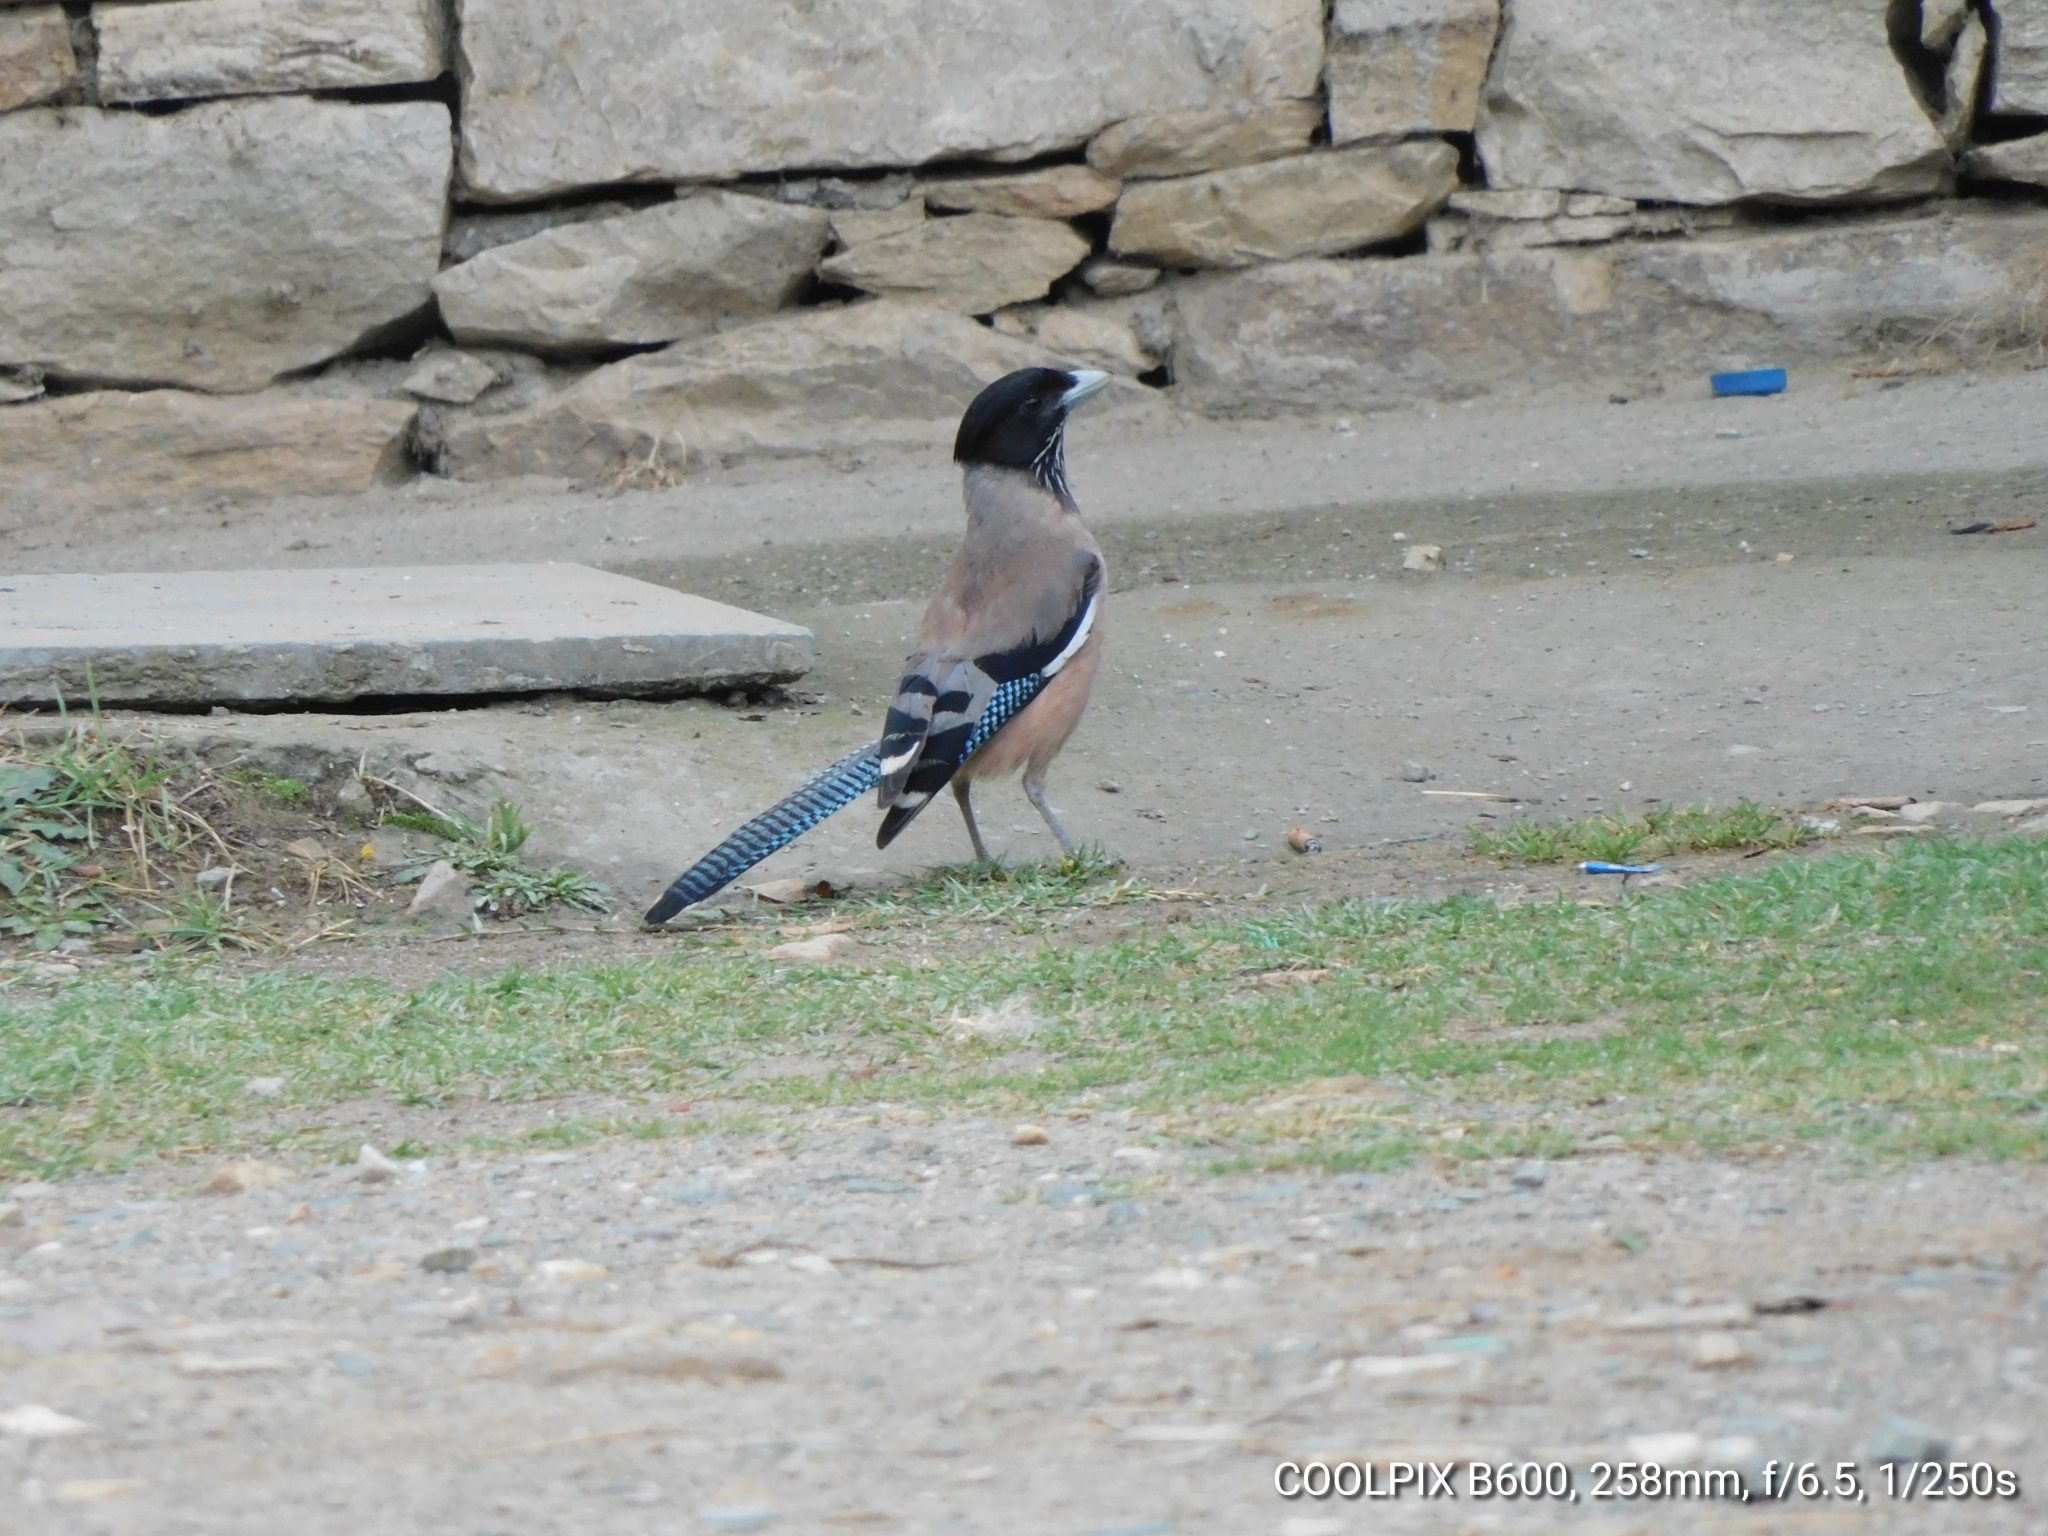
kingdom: Animalia
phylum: Chordata
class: Aves
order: Passeriformes
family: Corvidae
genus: Garrulus
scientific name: Garrulus lanceolatus
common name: Black-headed jay
